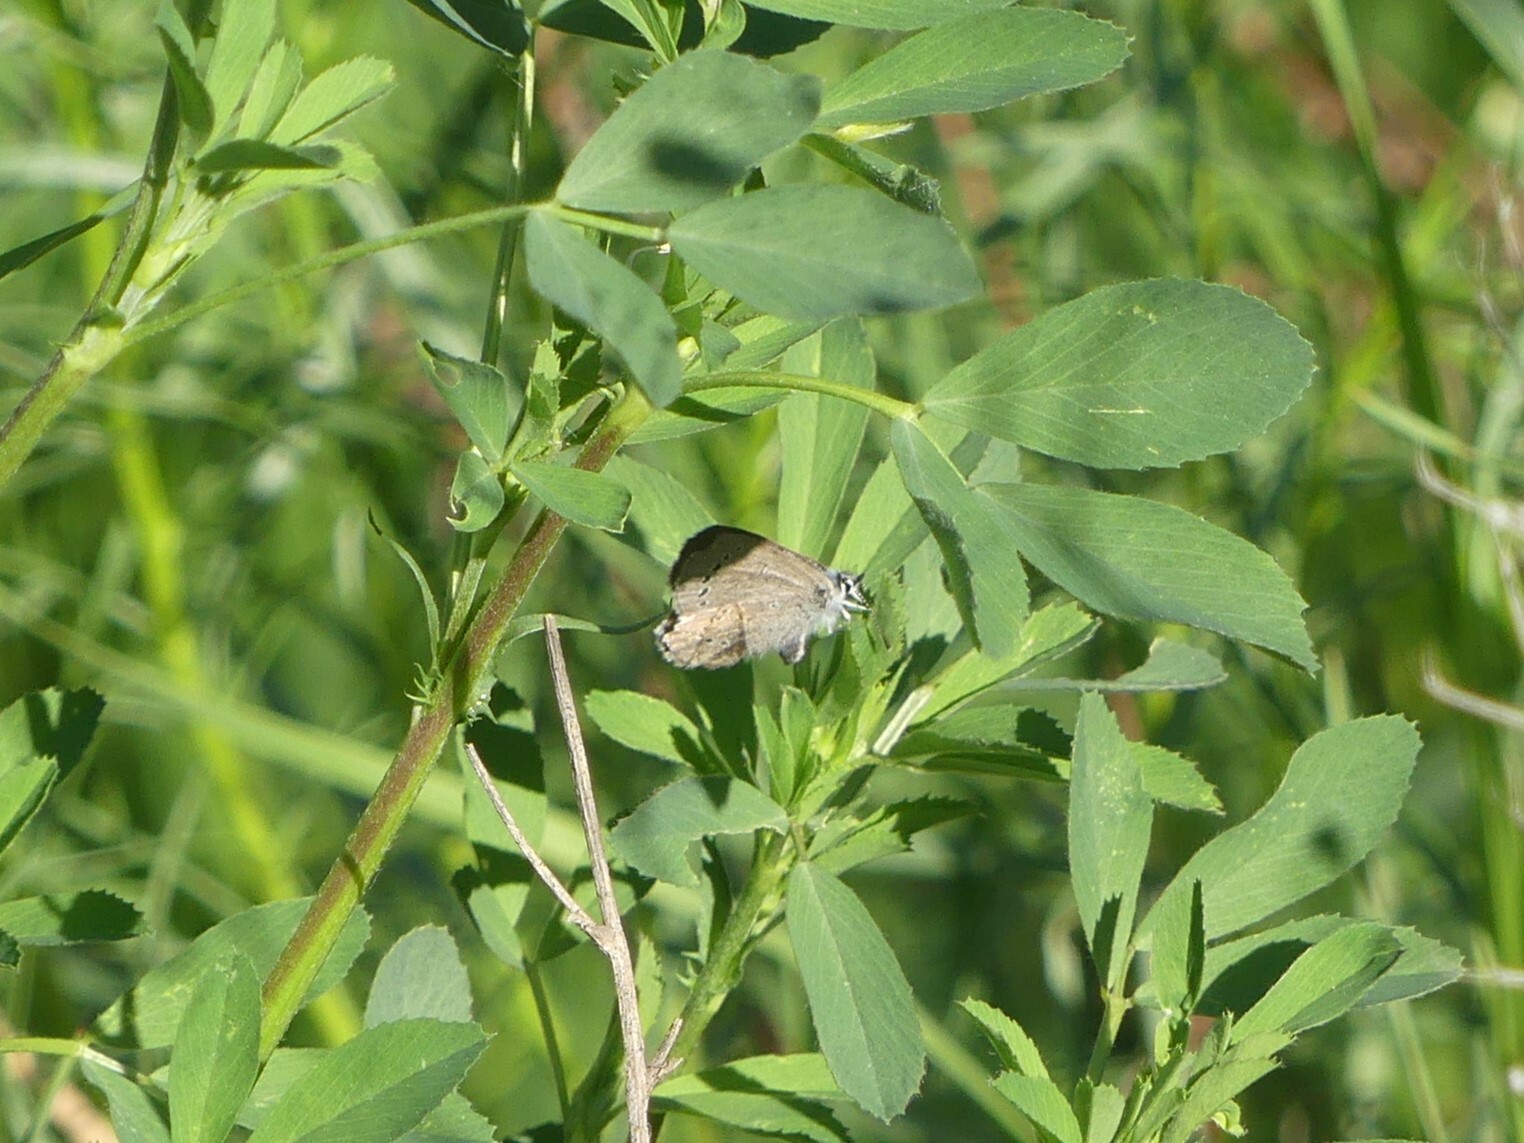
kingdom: Animalia
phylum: Arthropoda
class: Insecta
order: Lepidoptera
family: Lycaenidae
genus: Glaucopsyche
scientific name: Glaucopsyche lygdamus
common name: Silvery blue
